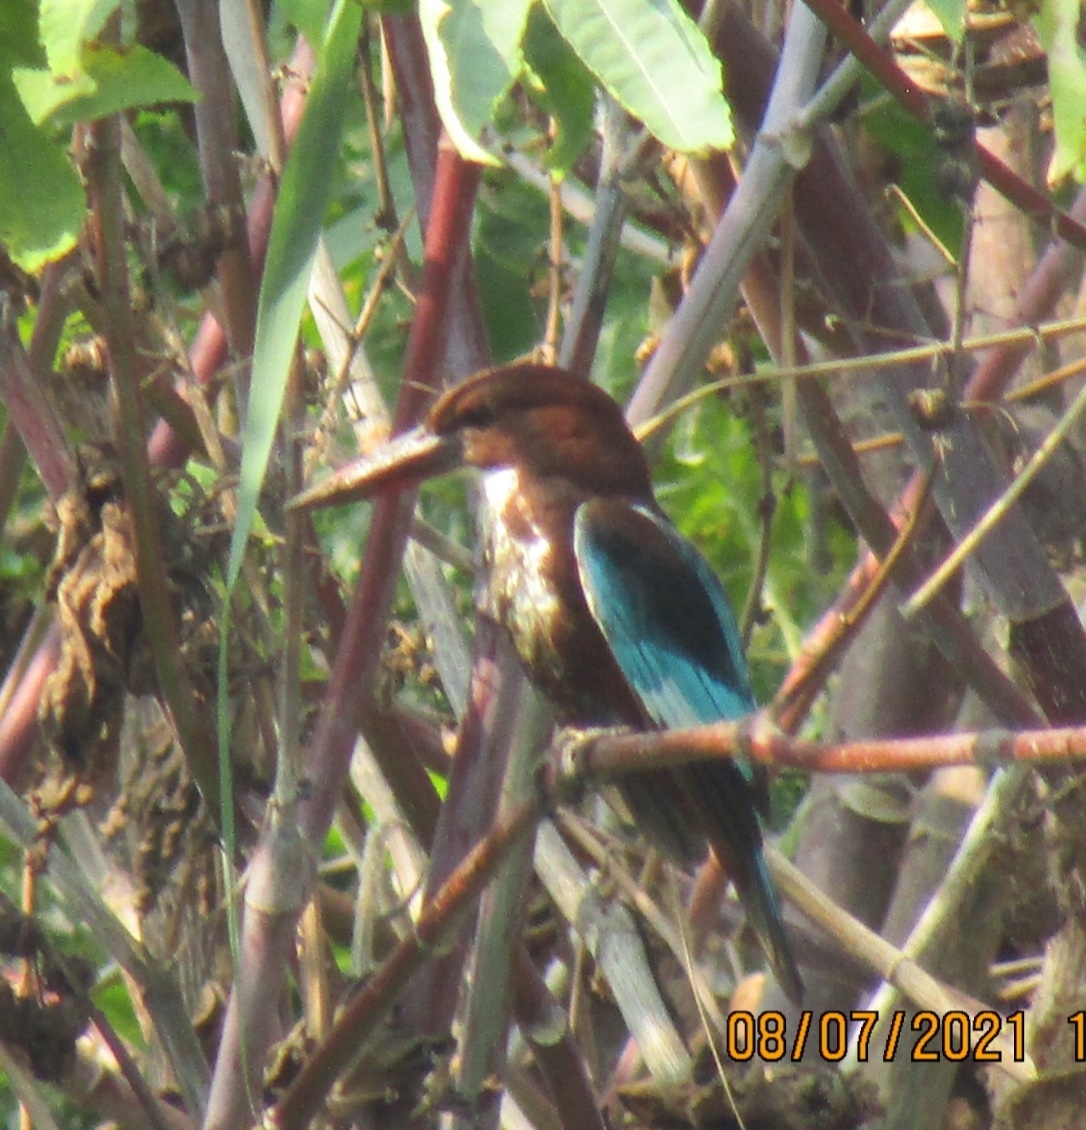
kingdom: Animalia
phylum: Chordata
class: Aves
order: Coraciiformes
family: Alcedinidae
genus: Halcyon
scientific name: Halcyon smyrnensis
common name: White-throated kingfisher
